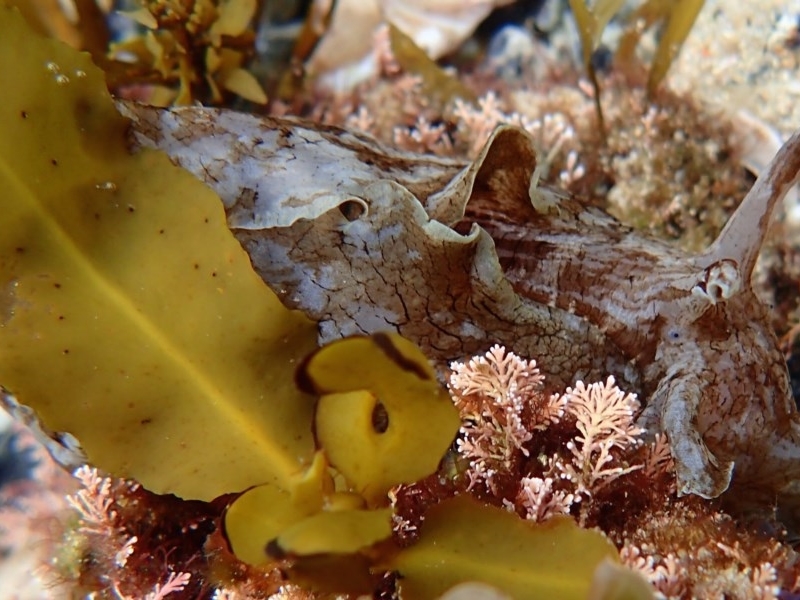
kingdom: Animalia
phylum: Mollusca
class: Gastropoda
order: Aplysiida
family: Aplysiidae
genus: Aplysia
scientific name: Aplysia sydneyensis
